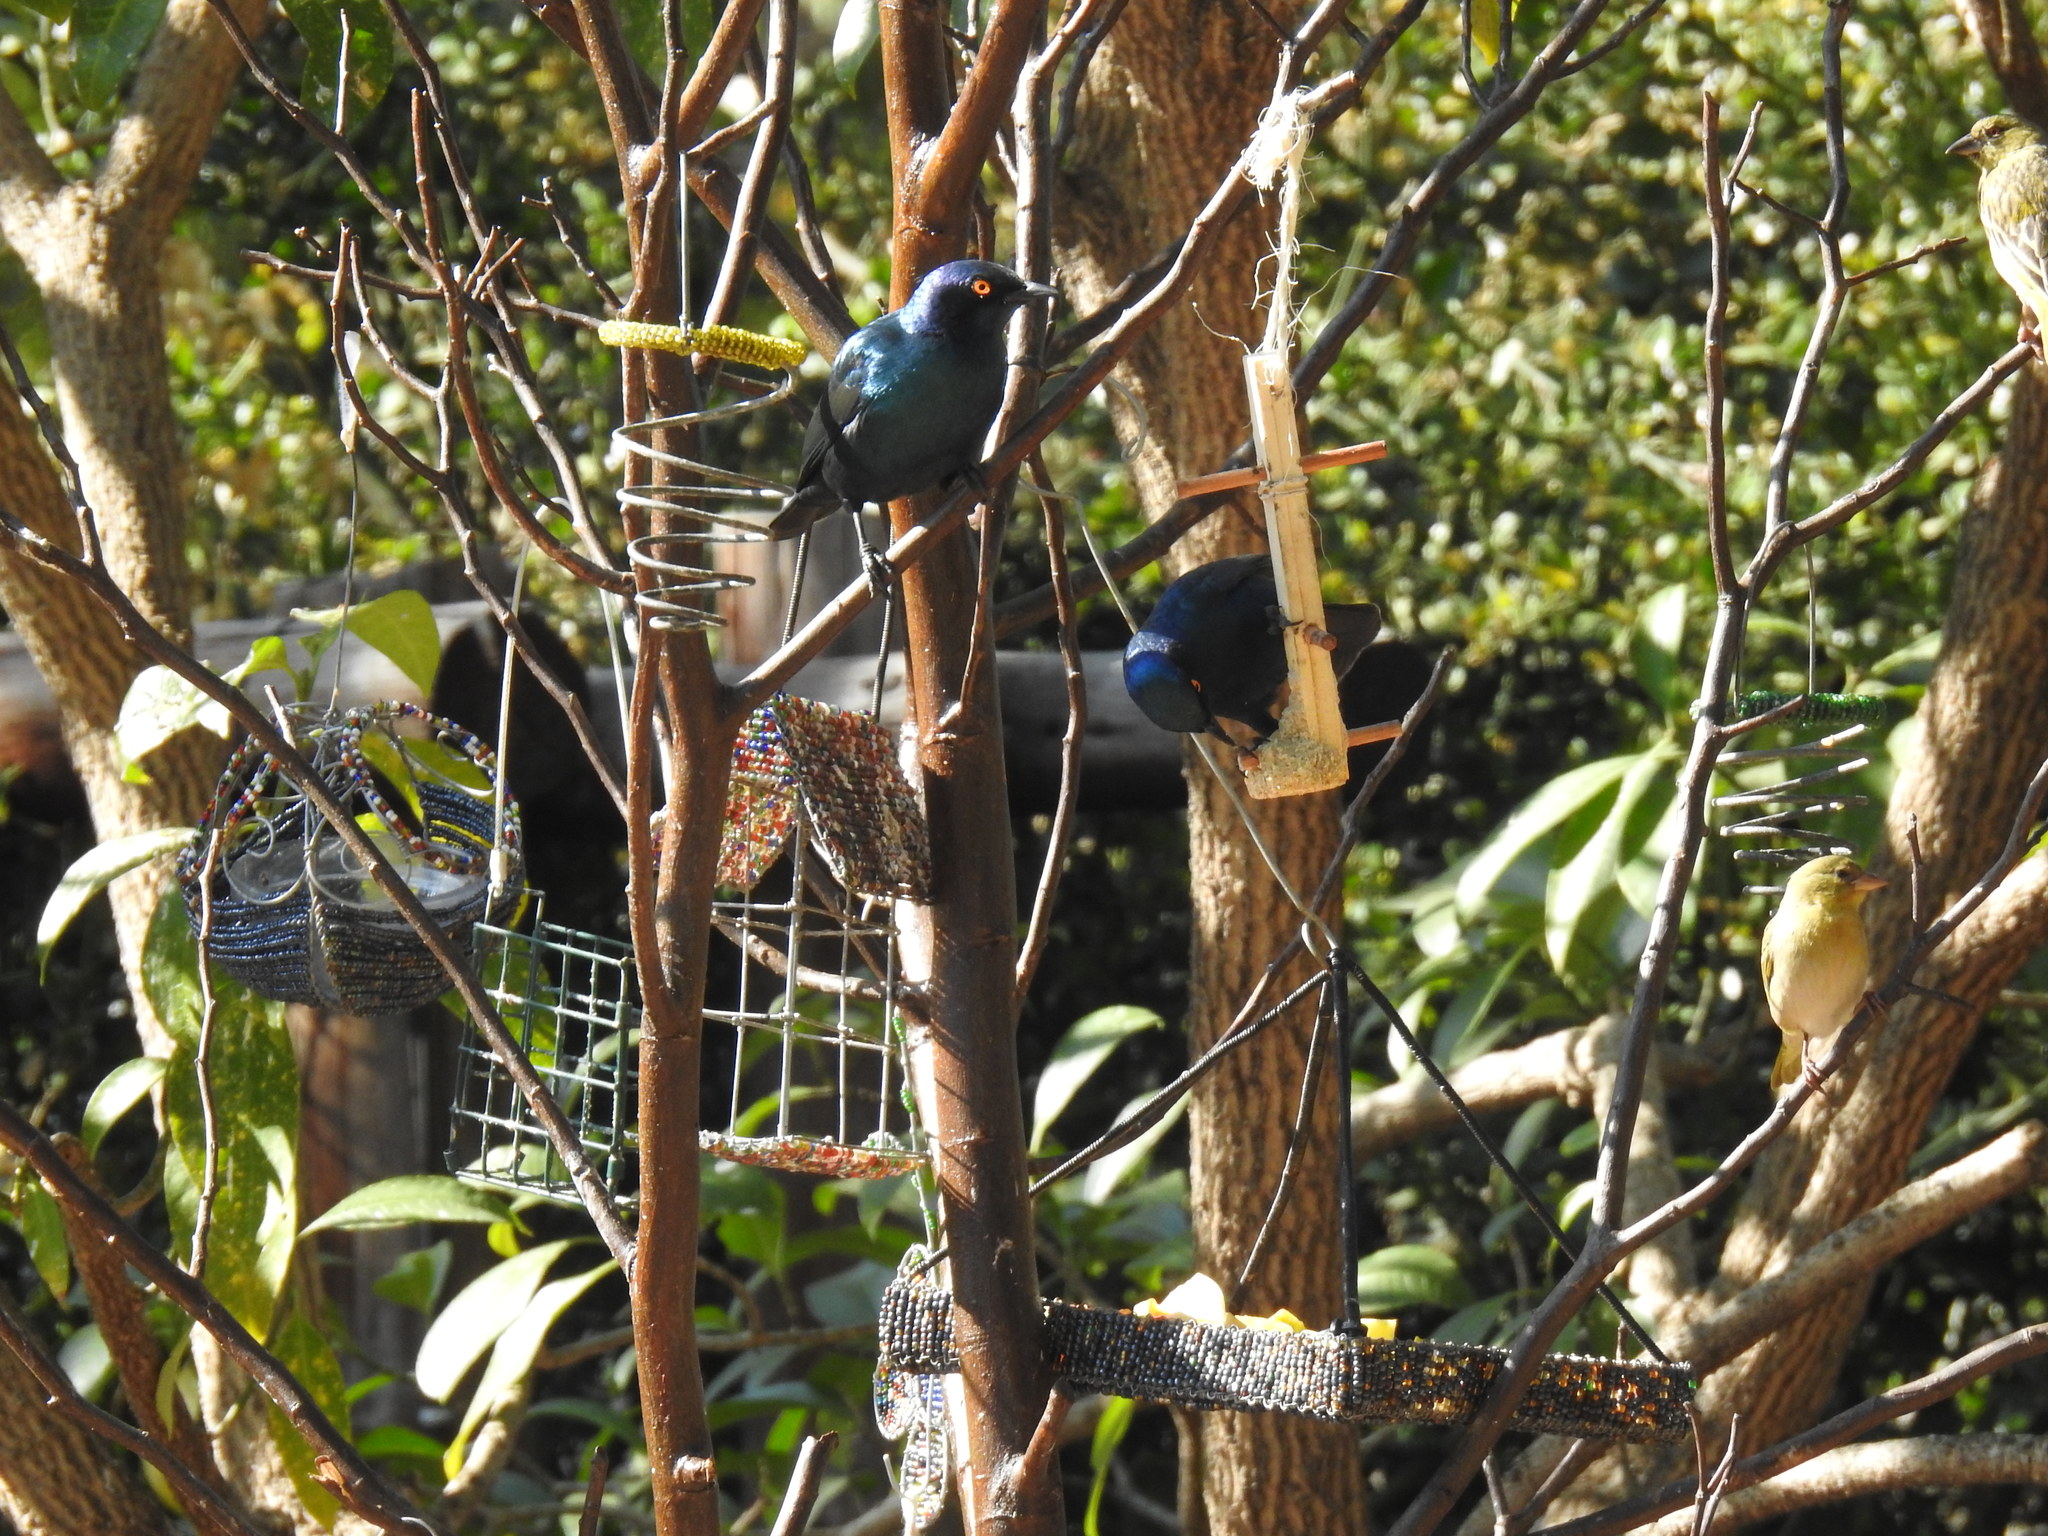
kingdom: Animalia
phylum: Chordata
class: Aves
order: Passeriformes
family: Sturnidae
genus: Lamprotornis
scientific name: Lamprotornis nitens
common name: Cape starling
